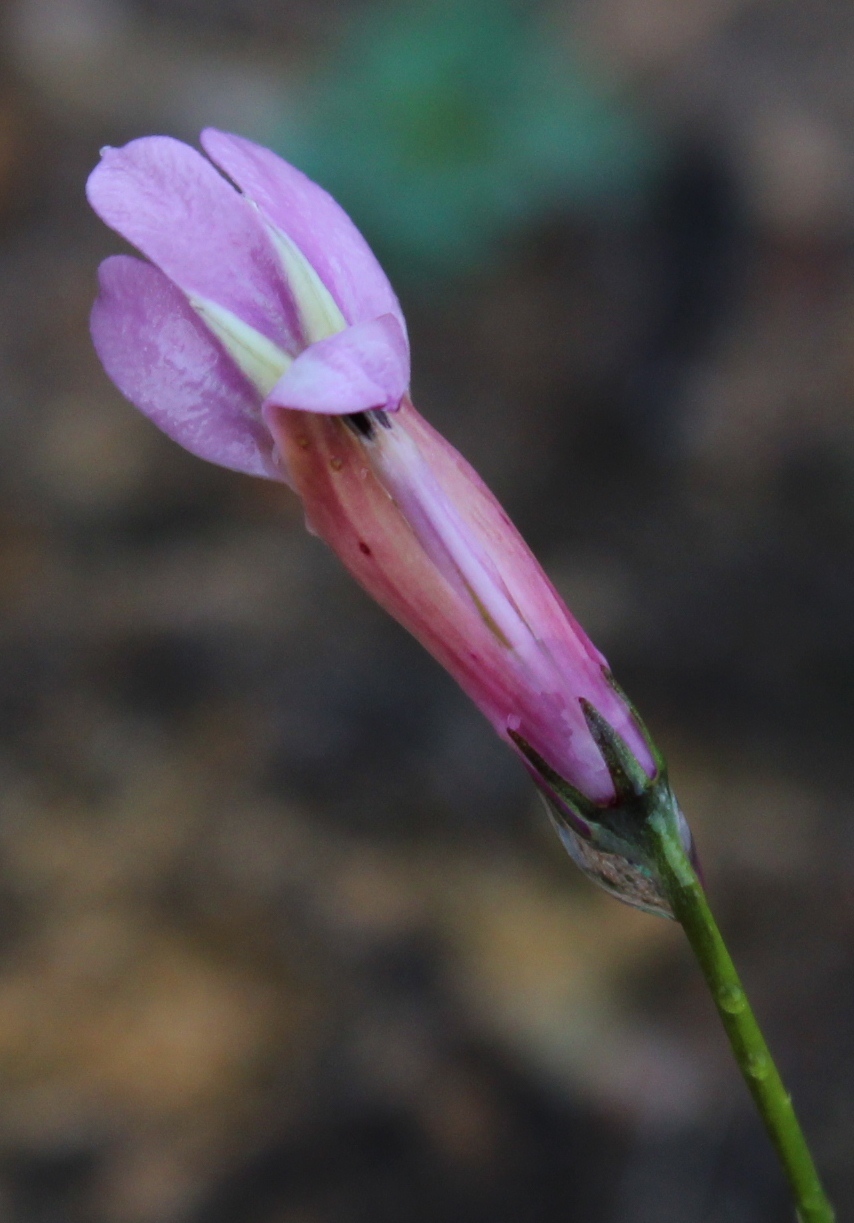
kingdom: Plantae
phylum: Tracheophyta
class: Magnoliopsida
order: Asterales
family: Campanulaceae
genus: Lobelia
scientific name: Lobelia coronopifolia
